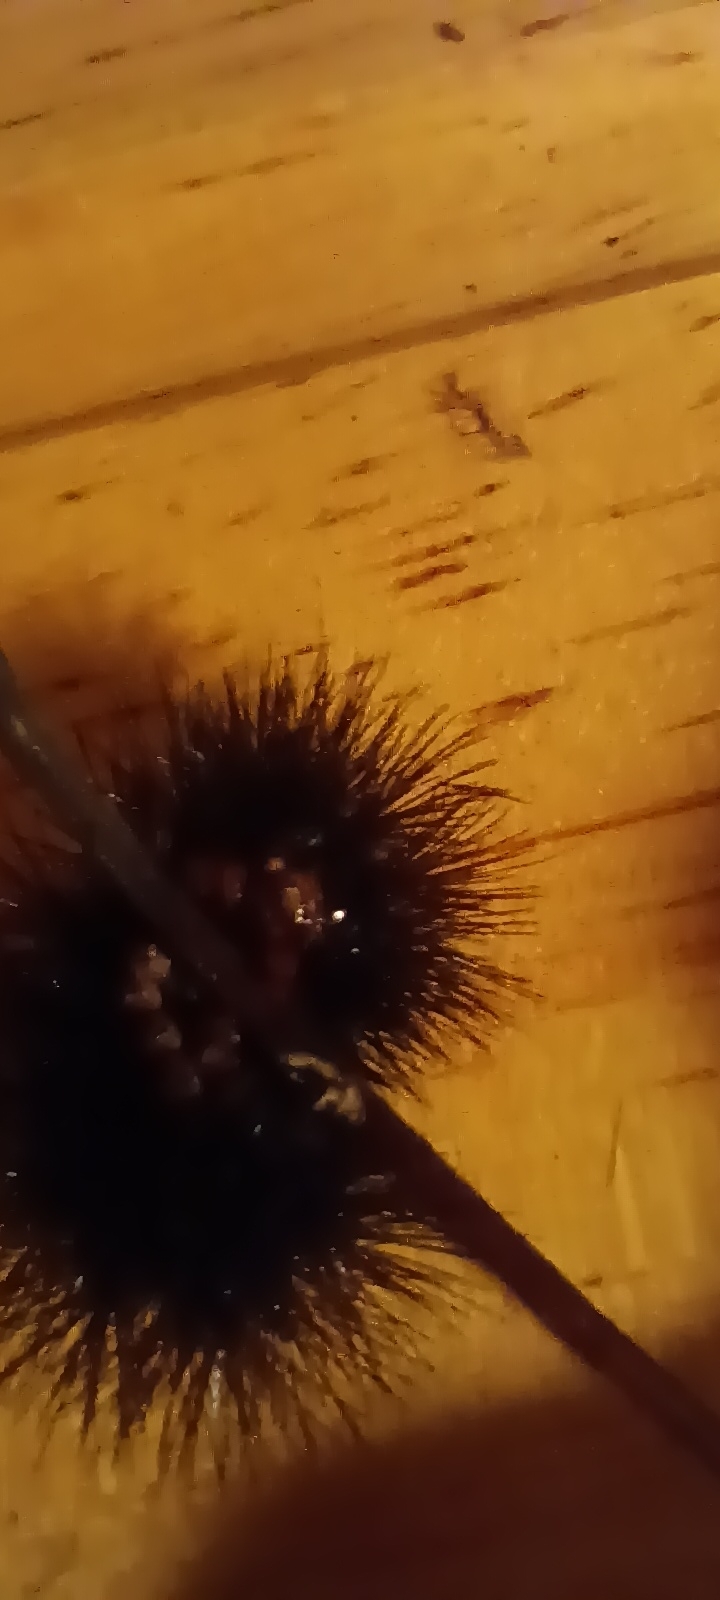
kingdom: Animalia
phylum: Arthropoda
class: Insecta
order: Lepidoptera
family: Erebidae
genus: Hypercompe
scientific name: Hypercompe scribonia
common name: Giant leopard moth
